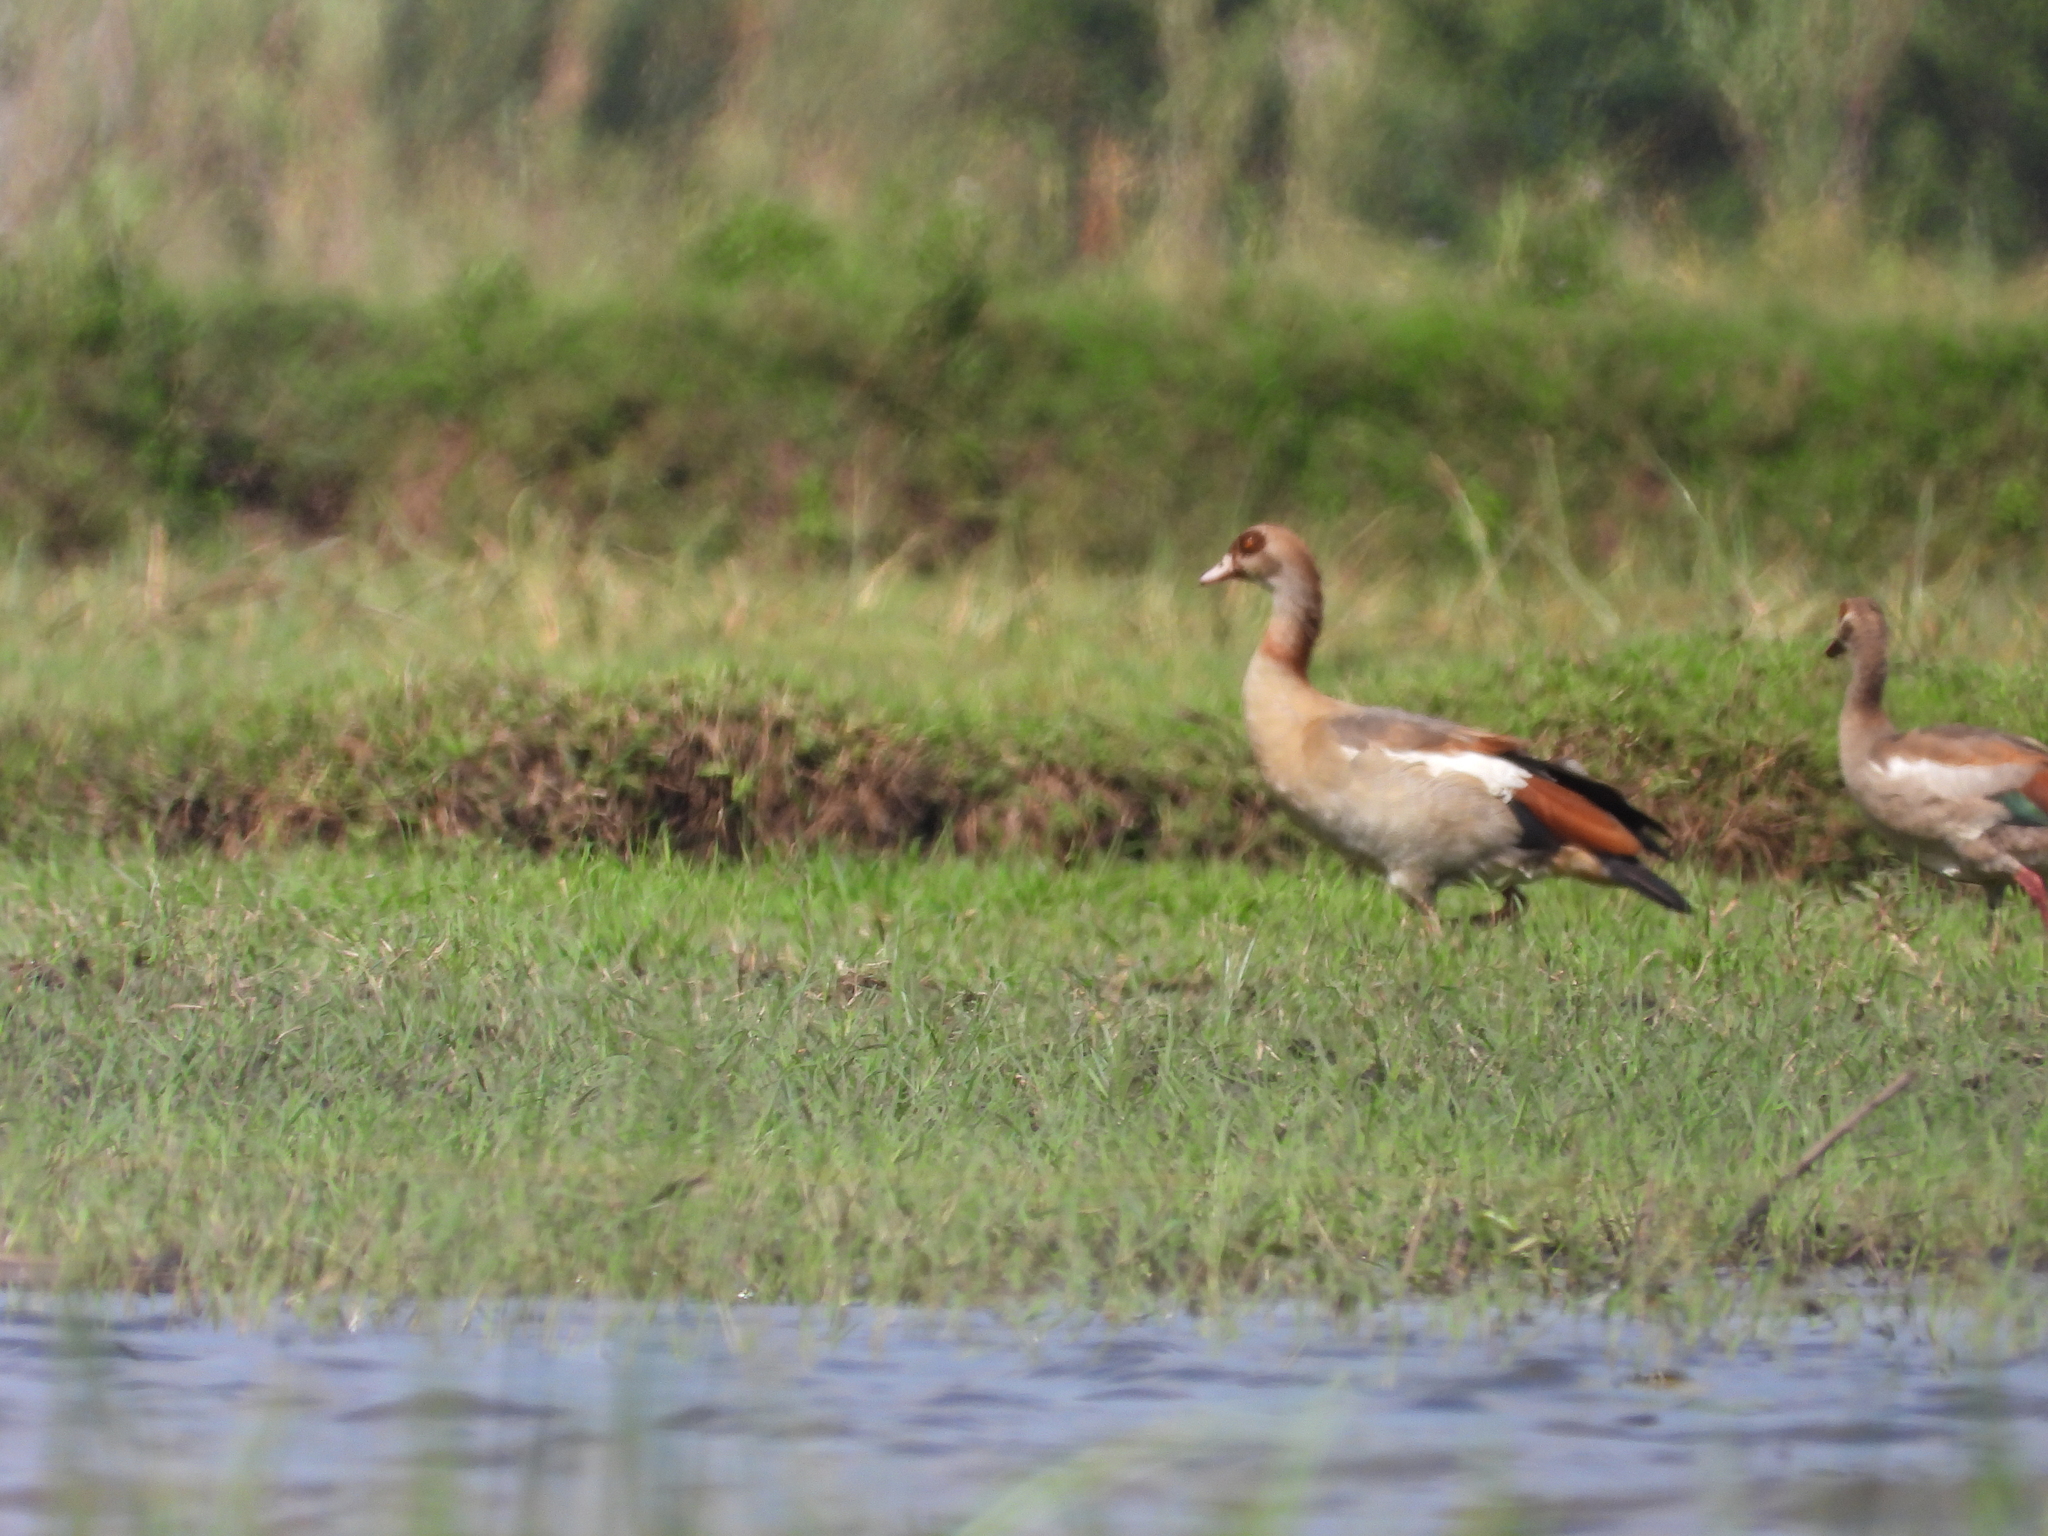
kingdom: Animalia
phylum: Chordata
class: Aves
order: Anseriformes
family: Anatidae
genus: Alopochen
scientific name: Alopochen aegyptiaca
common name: Egyptian goose
